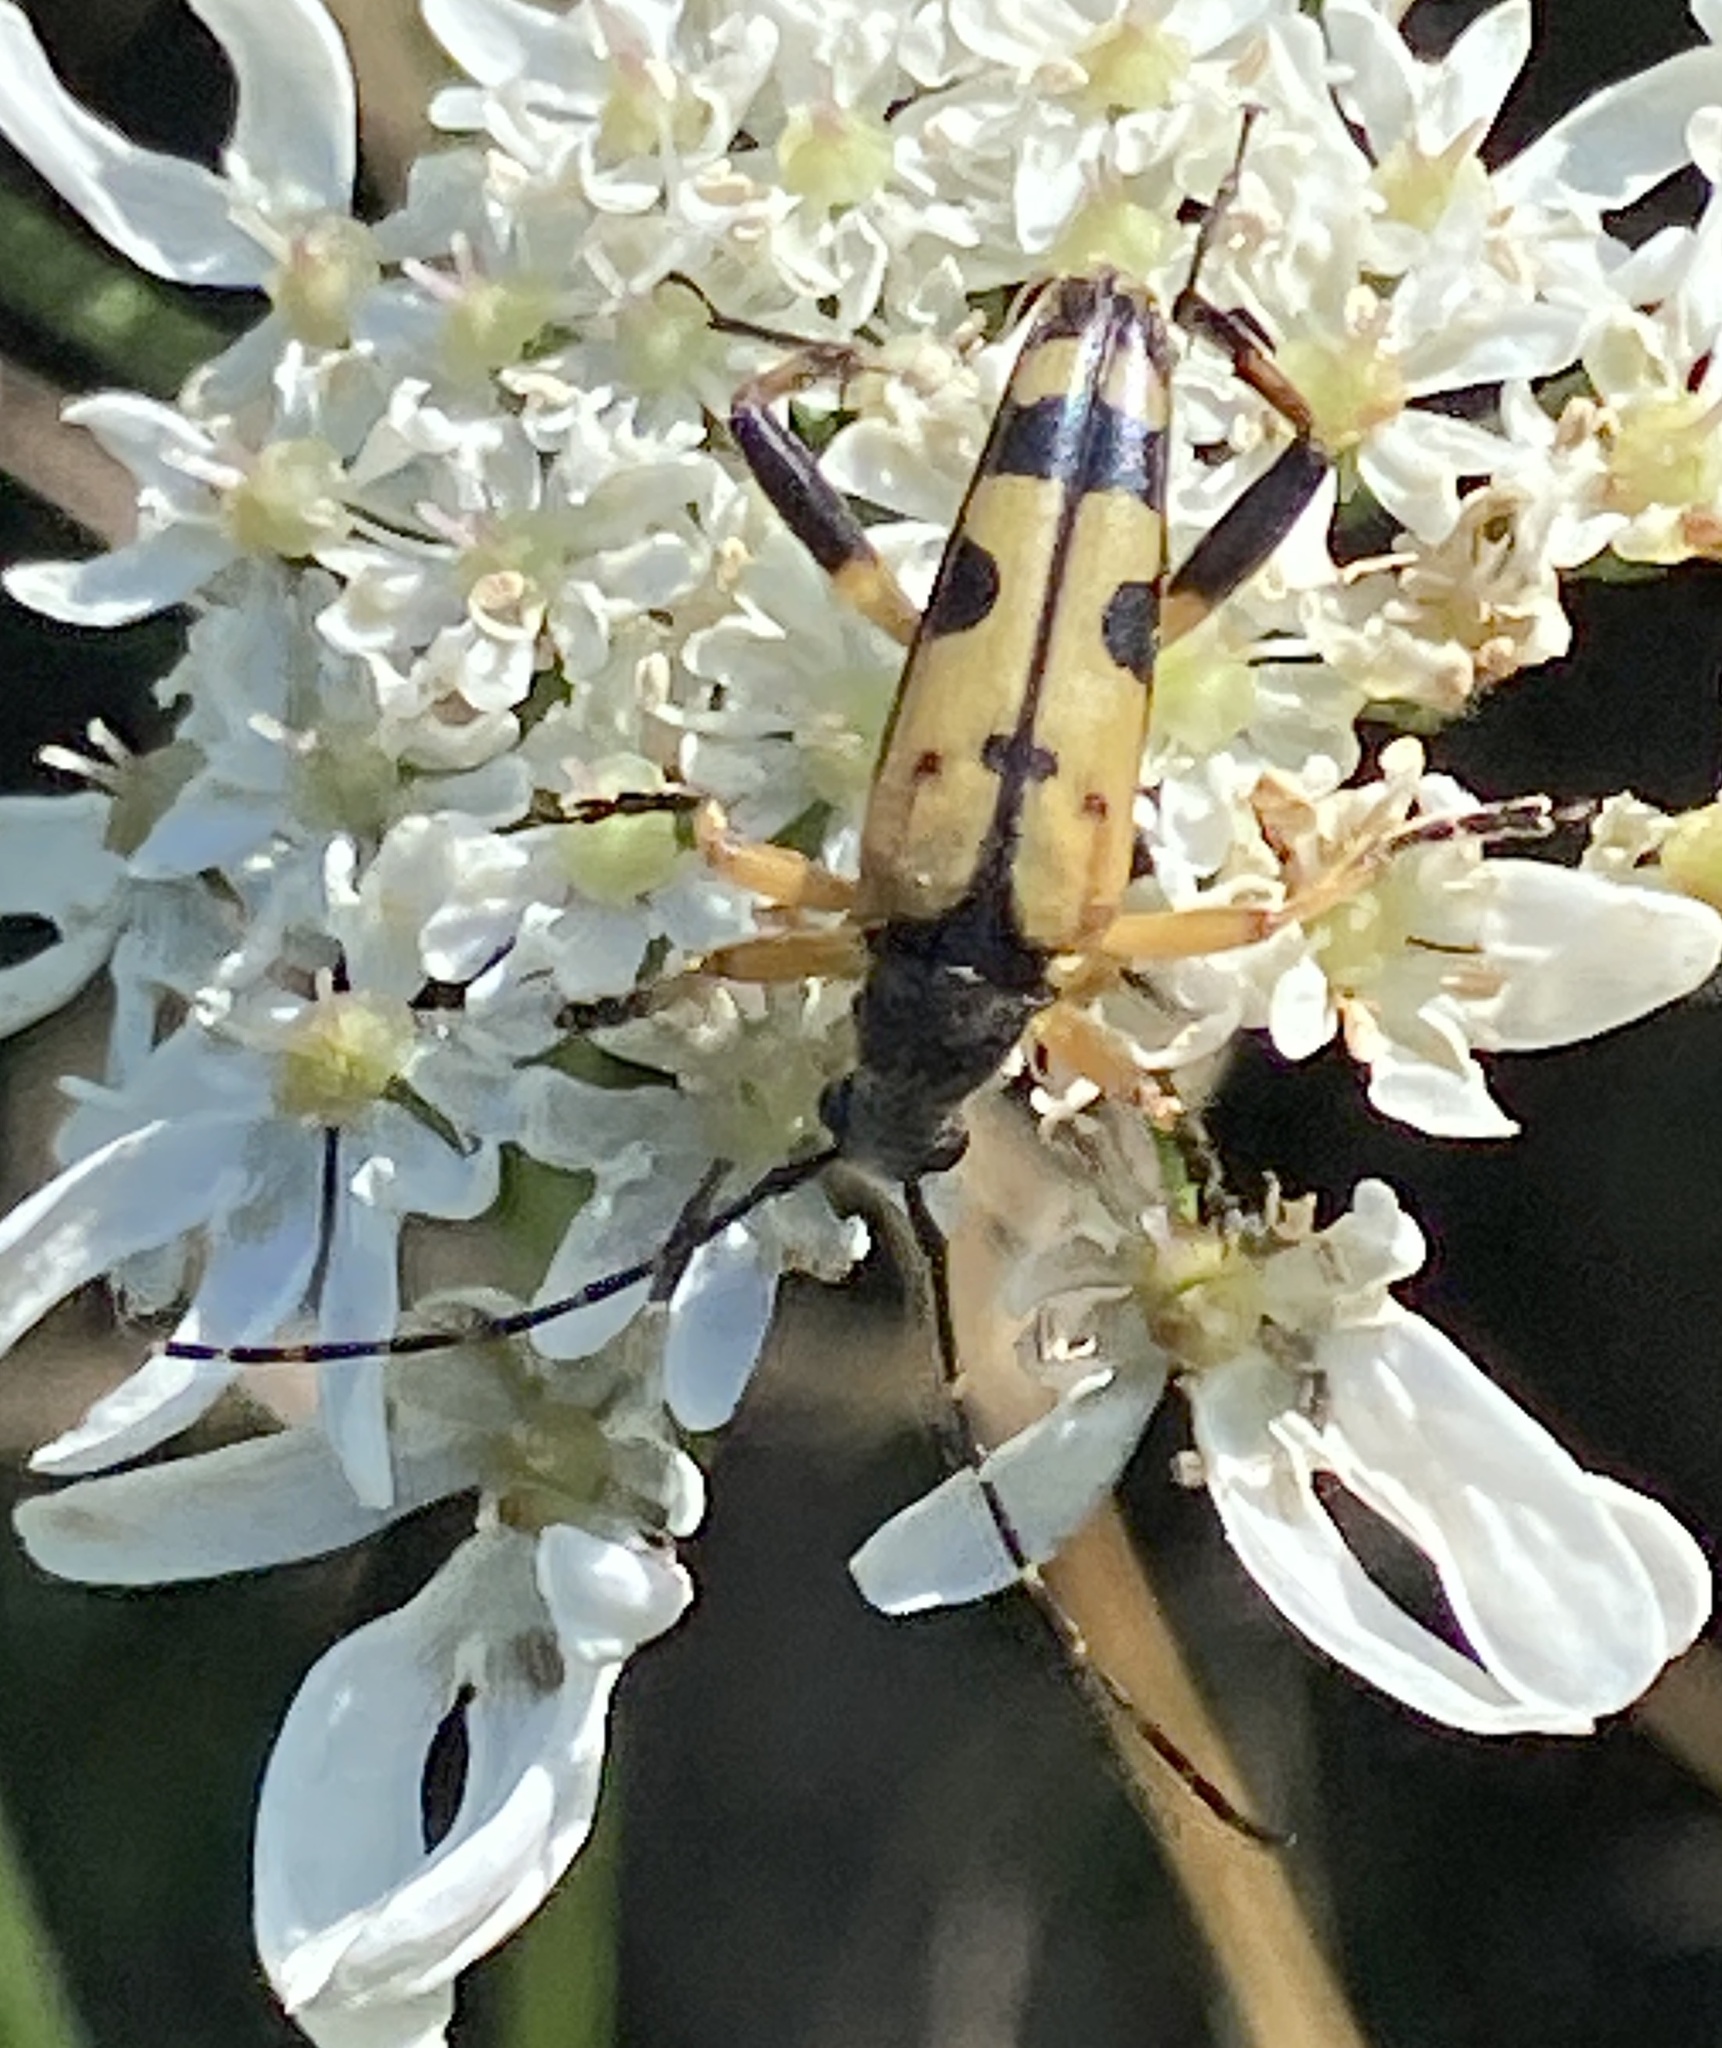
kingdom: Animalia
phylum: Arthropoda
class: Insecta
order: Coleoptera
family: Cerambycidae
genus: Rutpela
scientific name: Rutpela maculata
